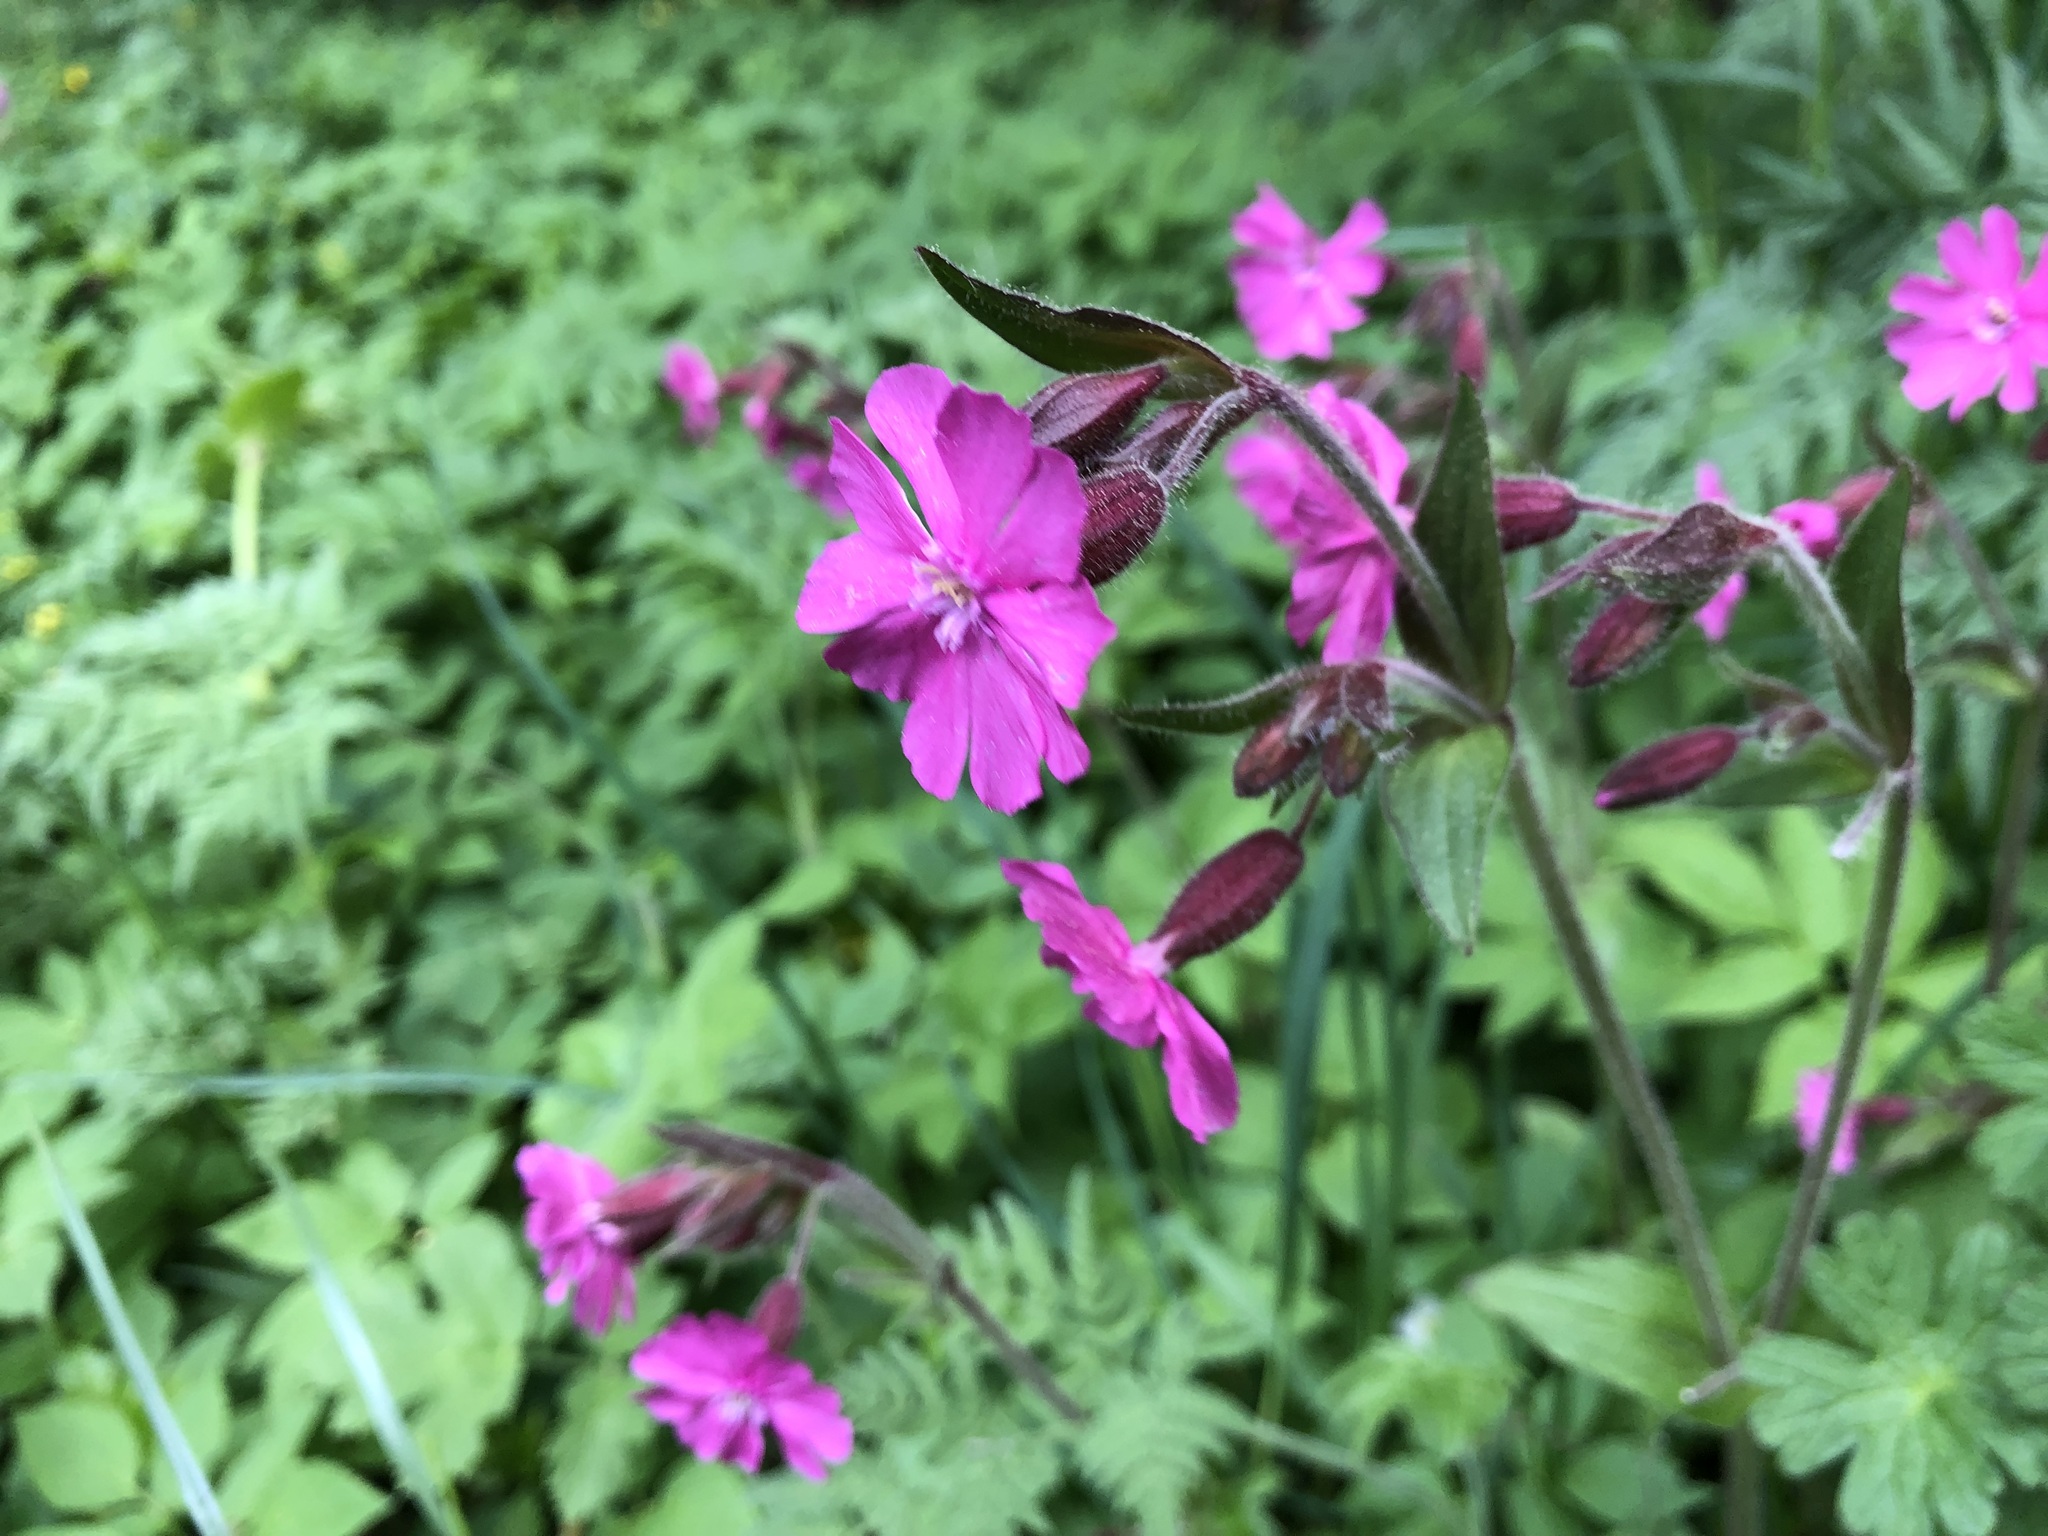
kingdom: Plantae
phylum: Tracheophyta
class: Magnoliopsida
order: Caryophyllales
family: Caryophyllaceae
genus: Silene
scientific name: Silene dioica
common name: Red campion
